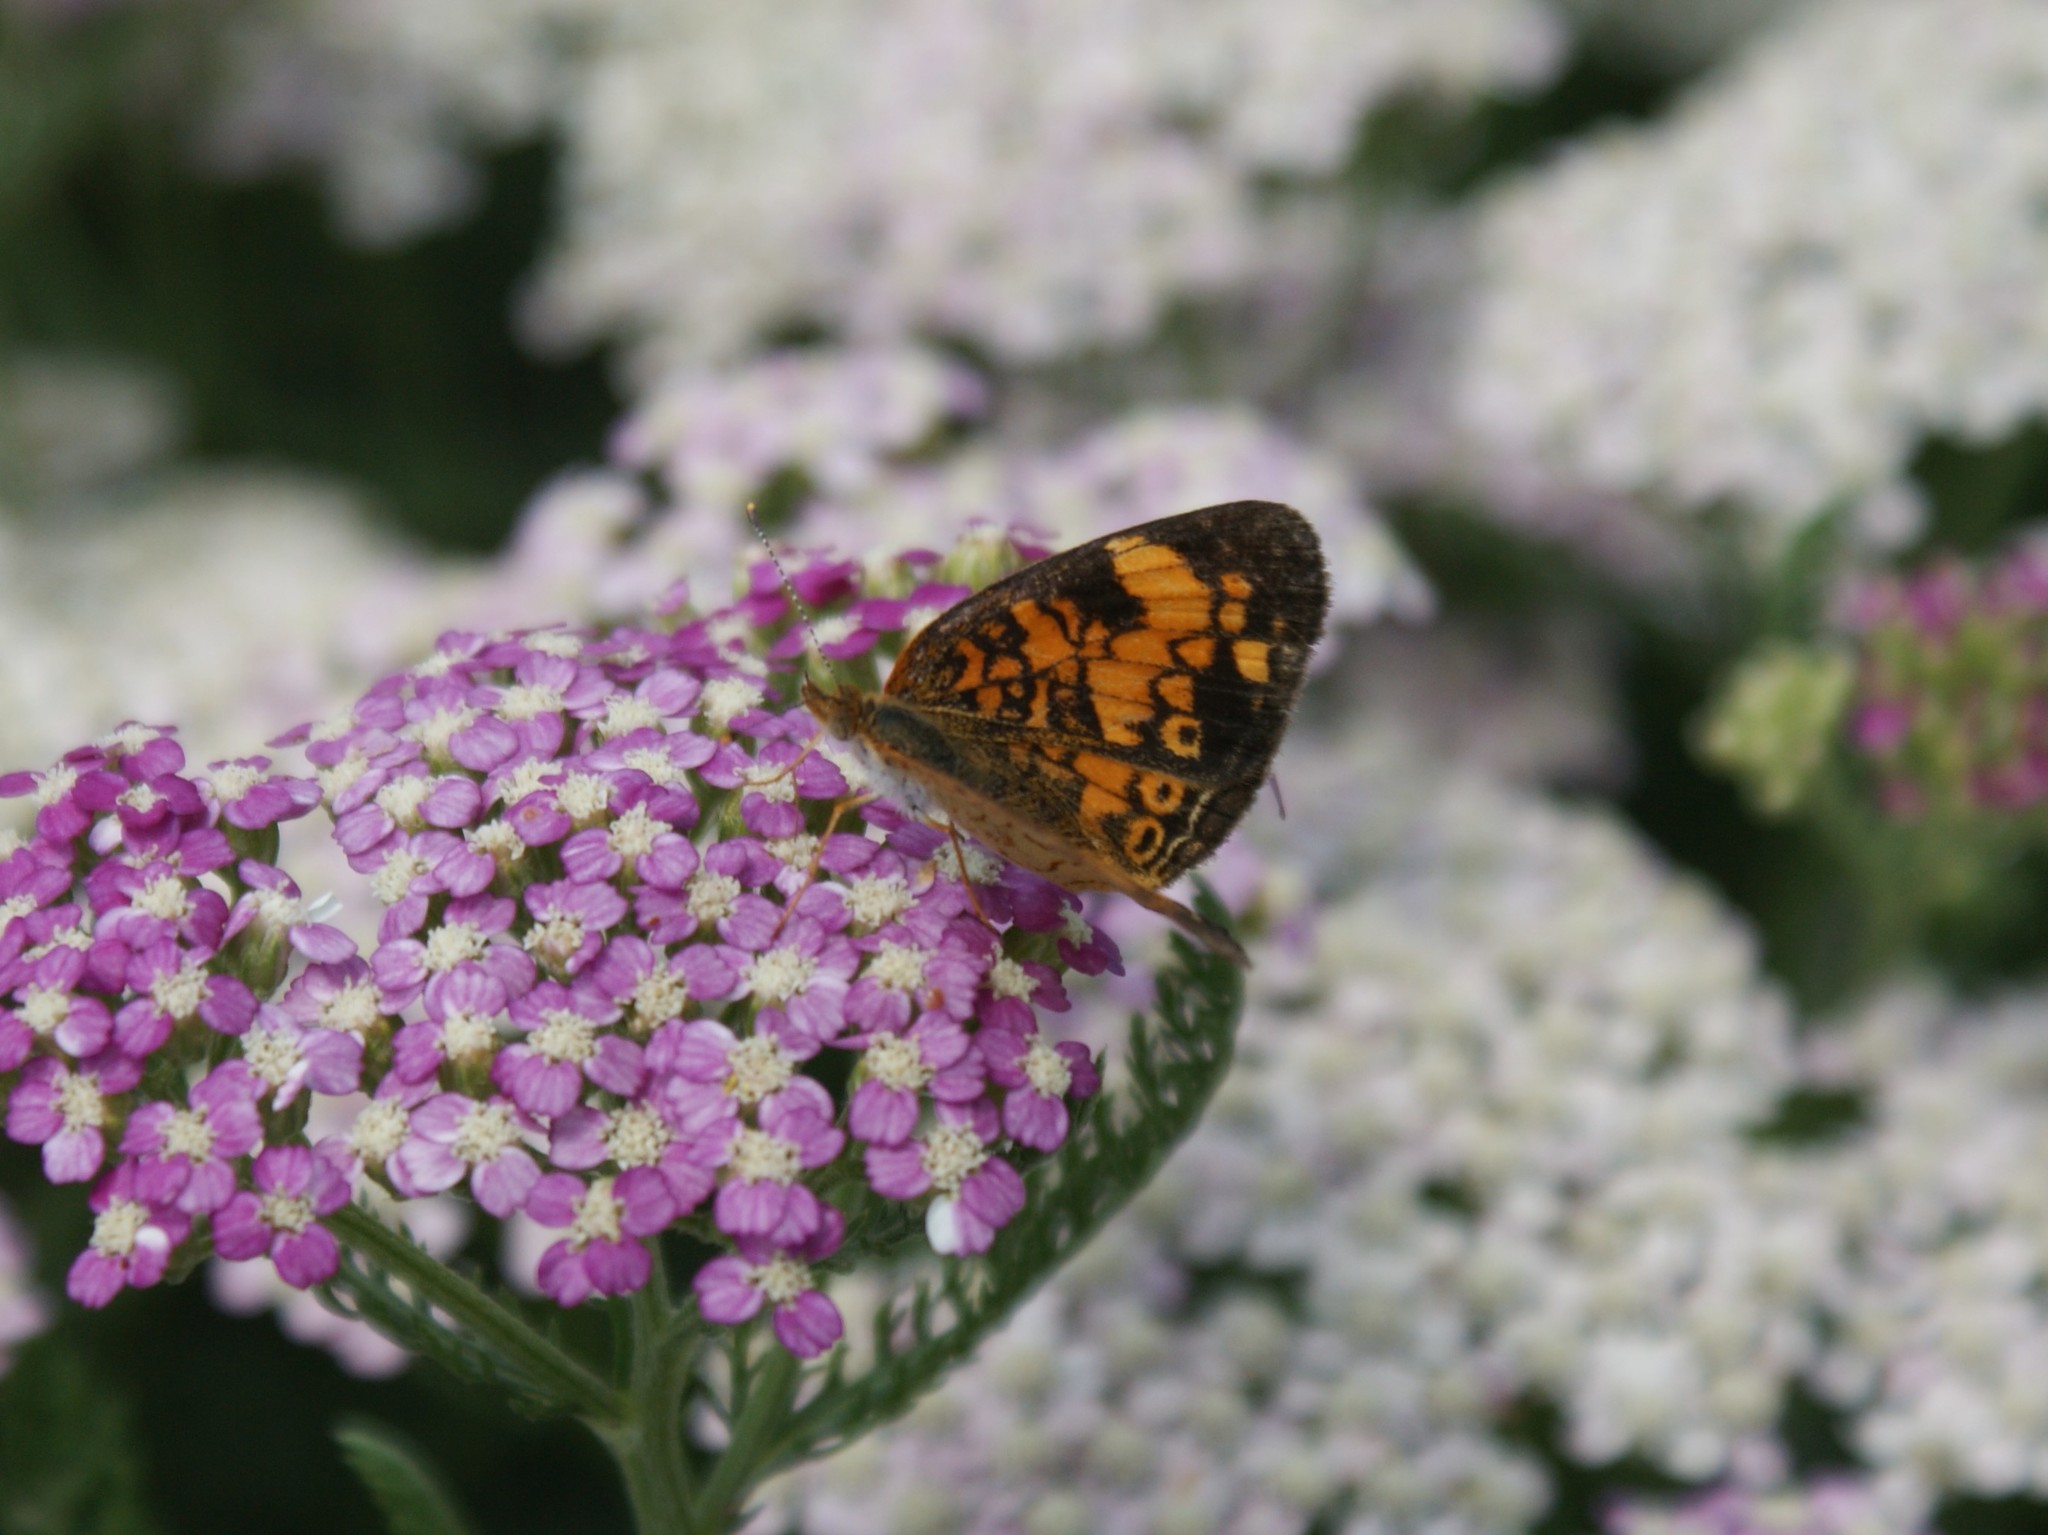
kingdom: Animalia
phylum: Arthropoda
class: Insecta
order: Lepidoptera
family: Nymphalidae
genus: Phyciodes
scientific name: Phyciodes tharos
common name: Pearl crescent
